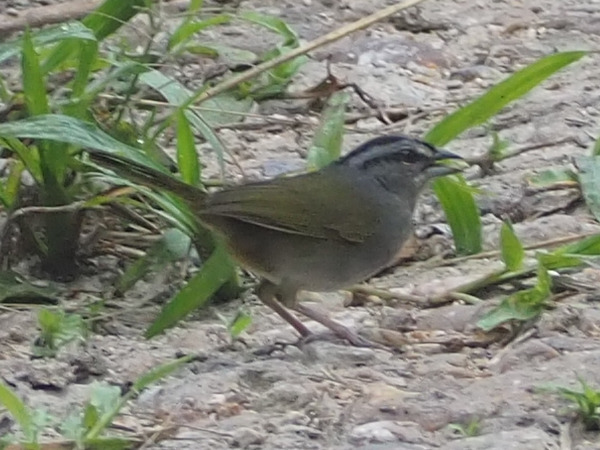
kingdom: Animalia
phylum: Chordata
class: Aves
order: Passeriformes
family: Passerellidae
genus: Arremonops
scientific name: Arremonops chloronotus
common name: Green-backed sparrow
